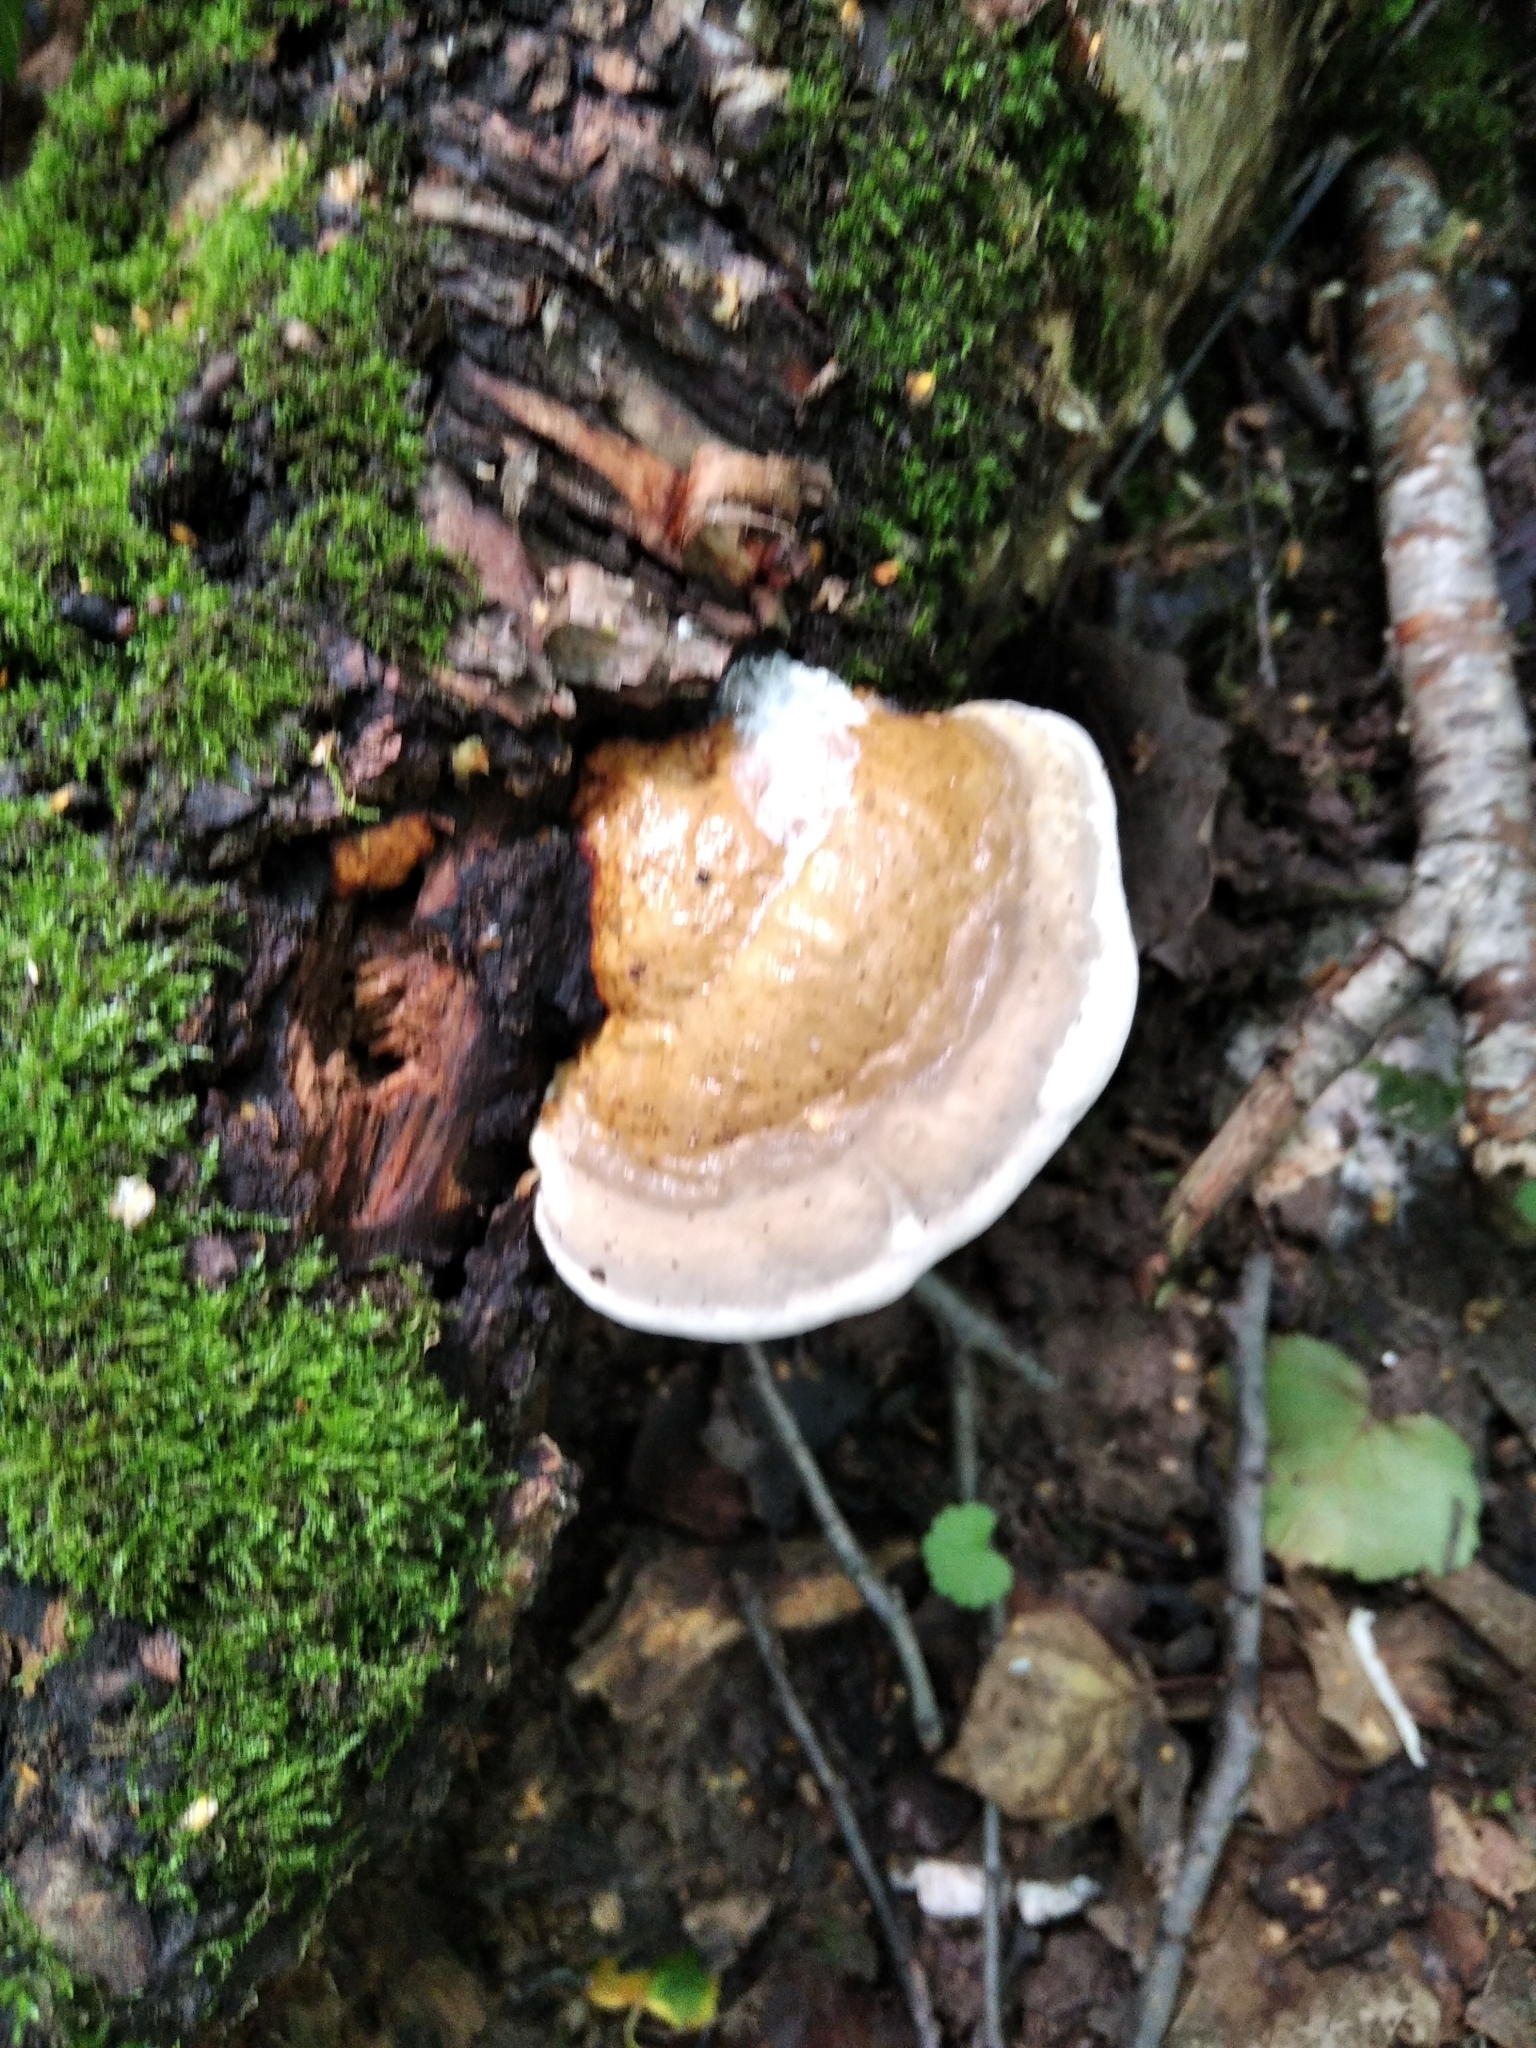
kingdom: Fungi
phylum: Basidiomycota
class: Agaricomycetes
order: Polyporales
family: Fomitopsidaceae
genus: Fomitopsis
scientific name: Fomitopsis pinicola
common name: Red-belted bracket
